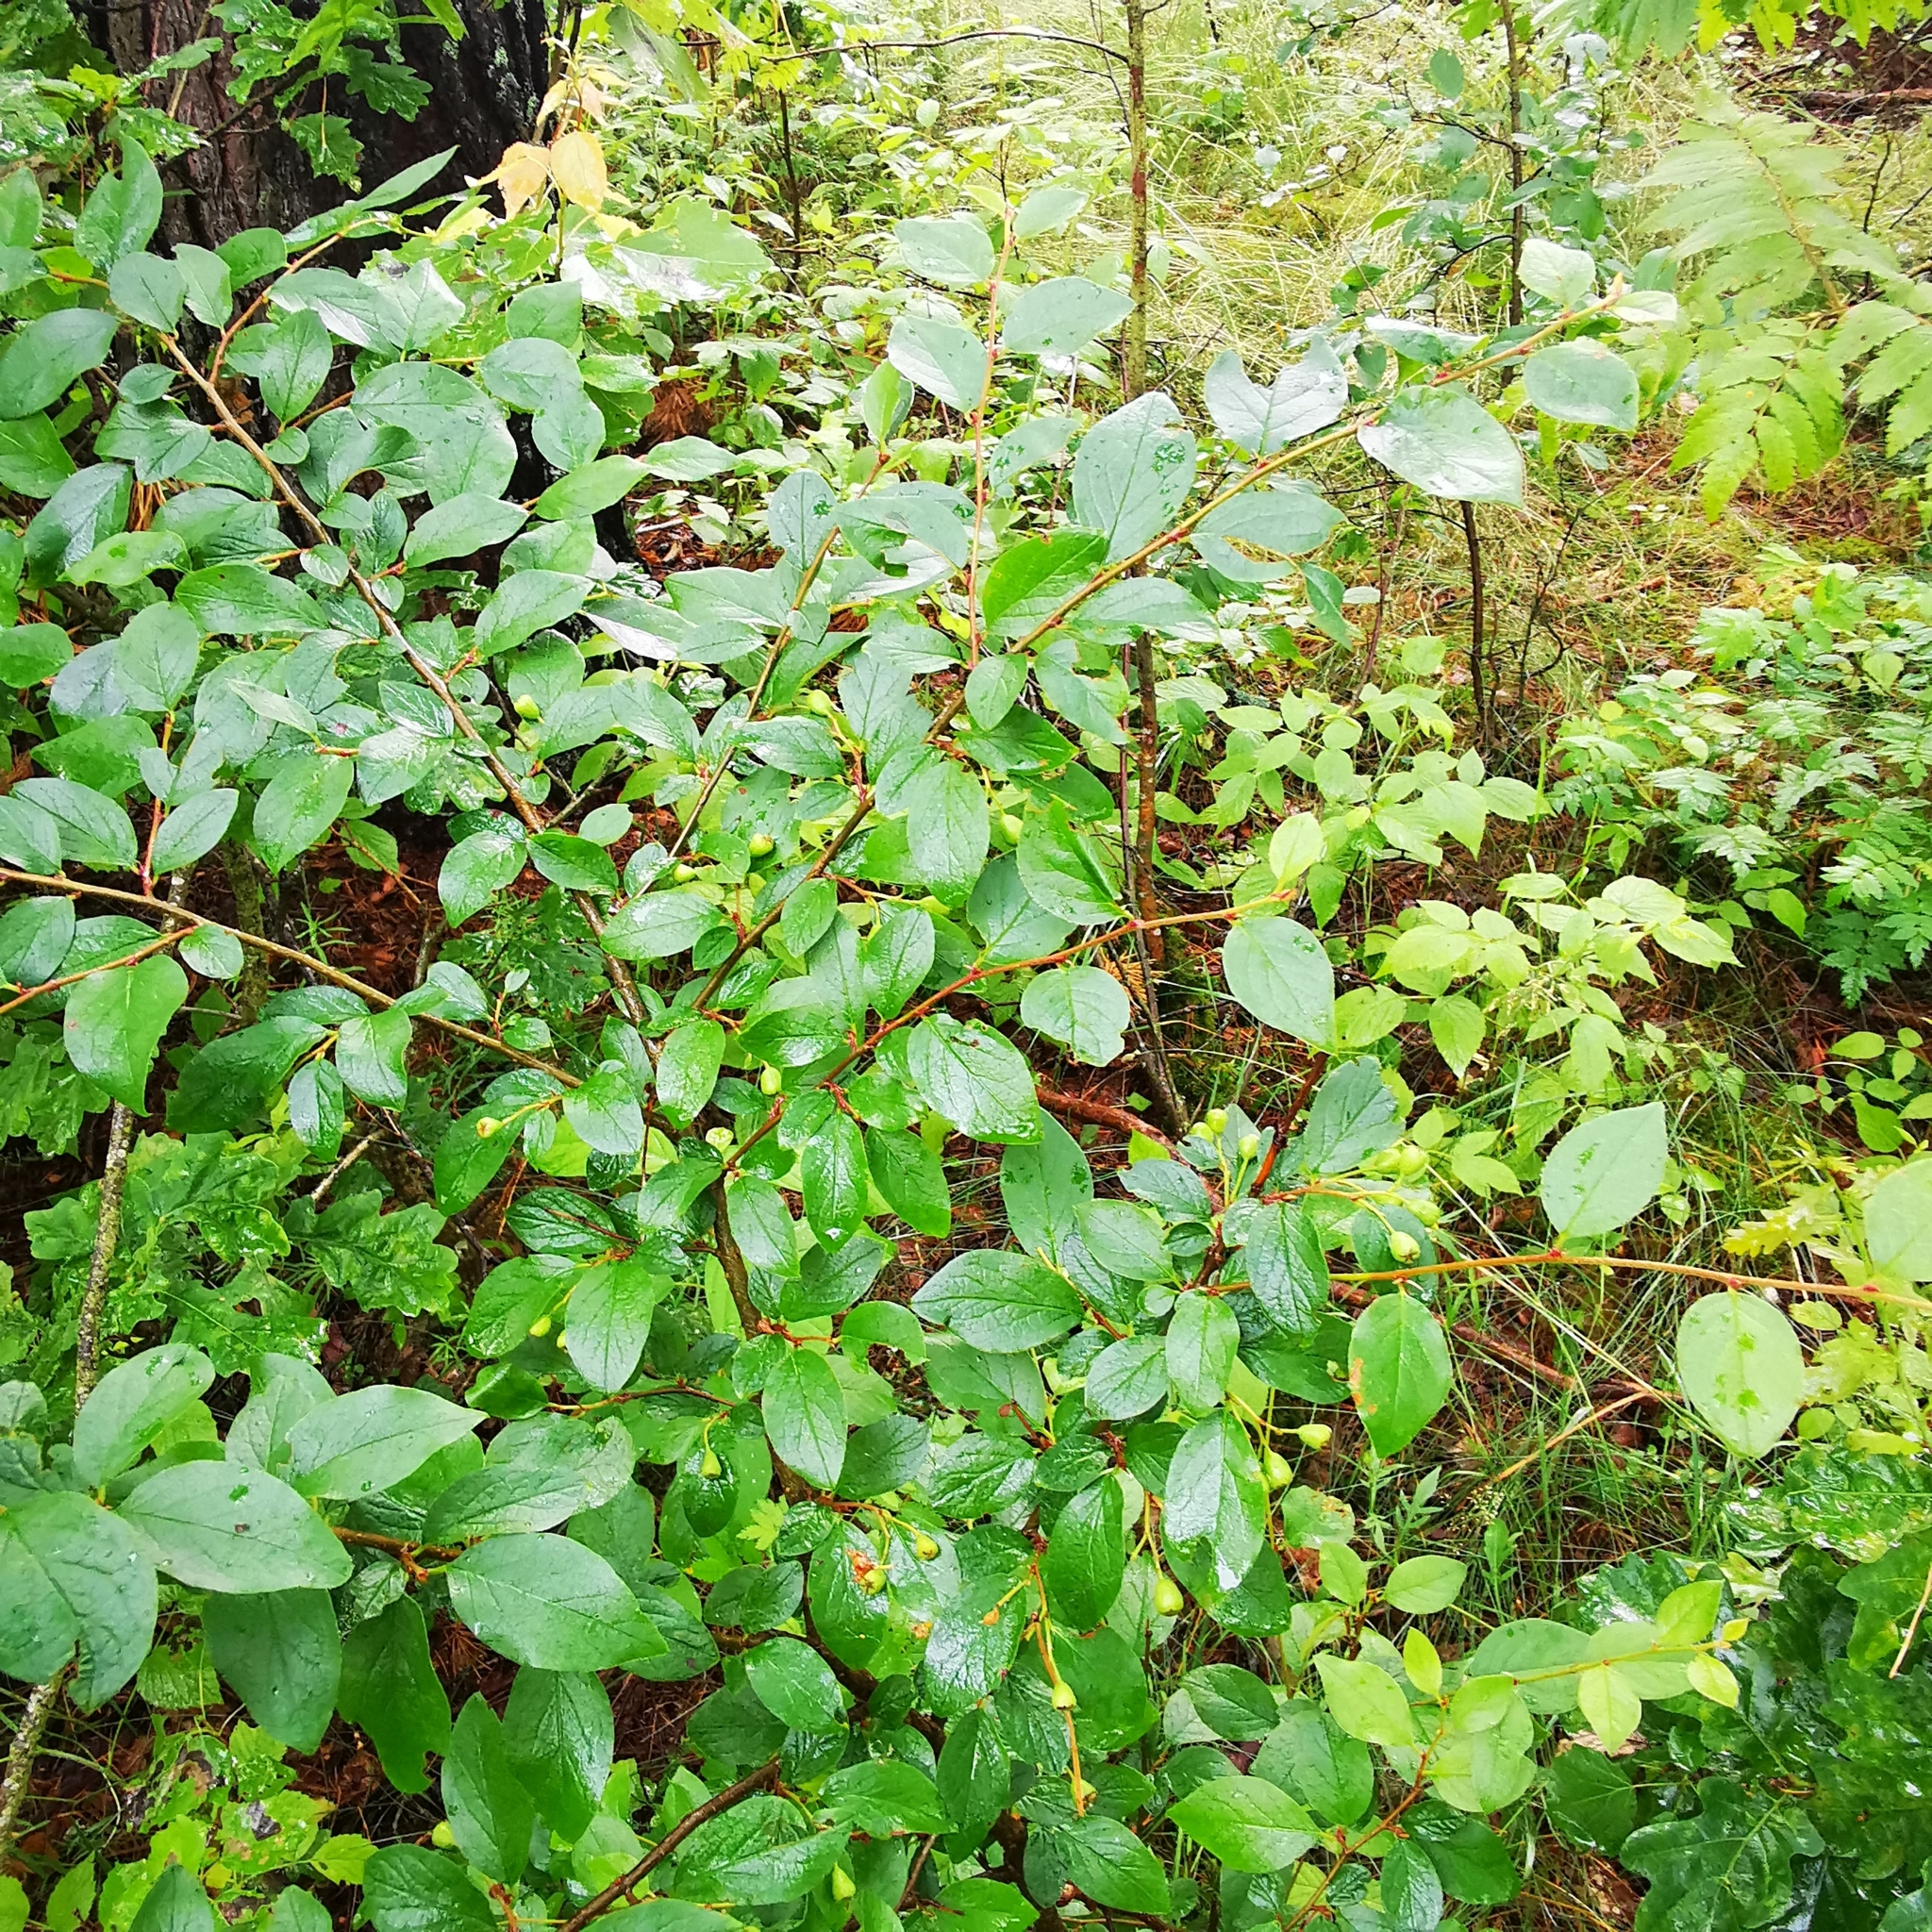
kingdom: Plantae
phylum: Tracheophyta
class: Magnoliopsida
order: Rosales
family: Rosaceae
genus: Cotoneaster
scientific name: Cotoneaster acutifolius
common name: Peking cotoneaster
